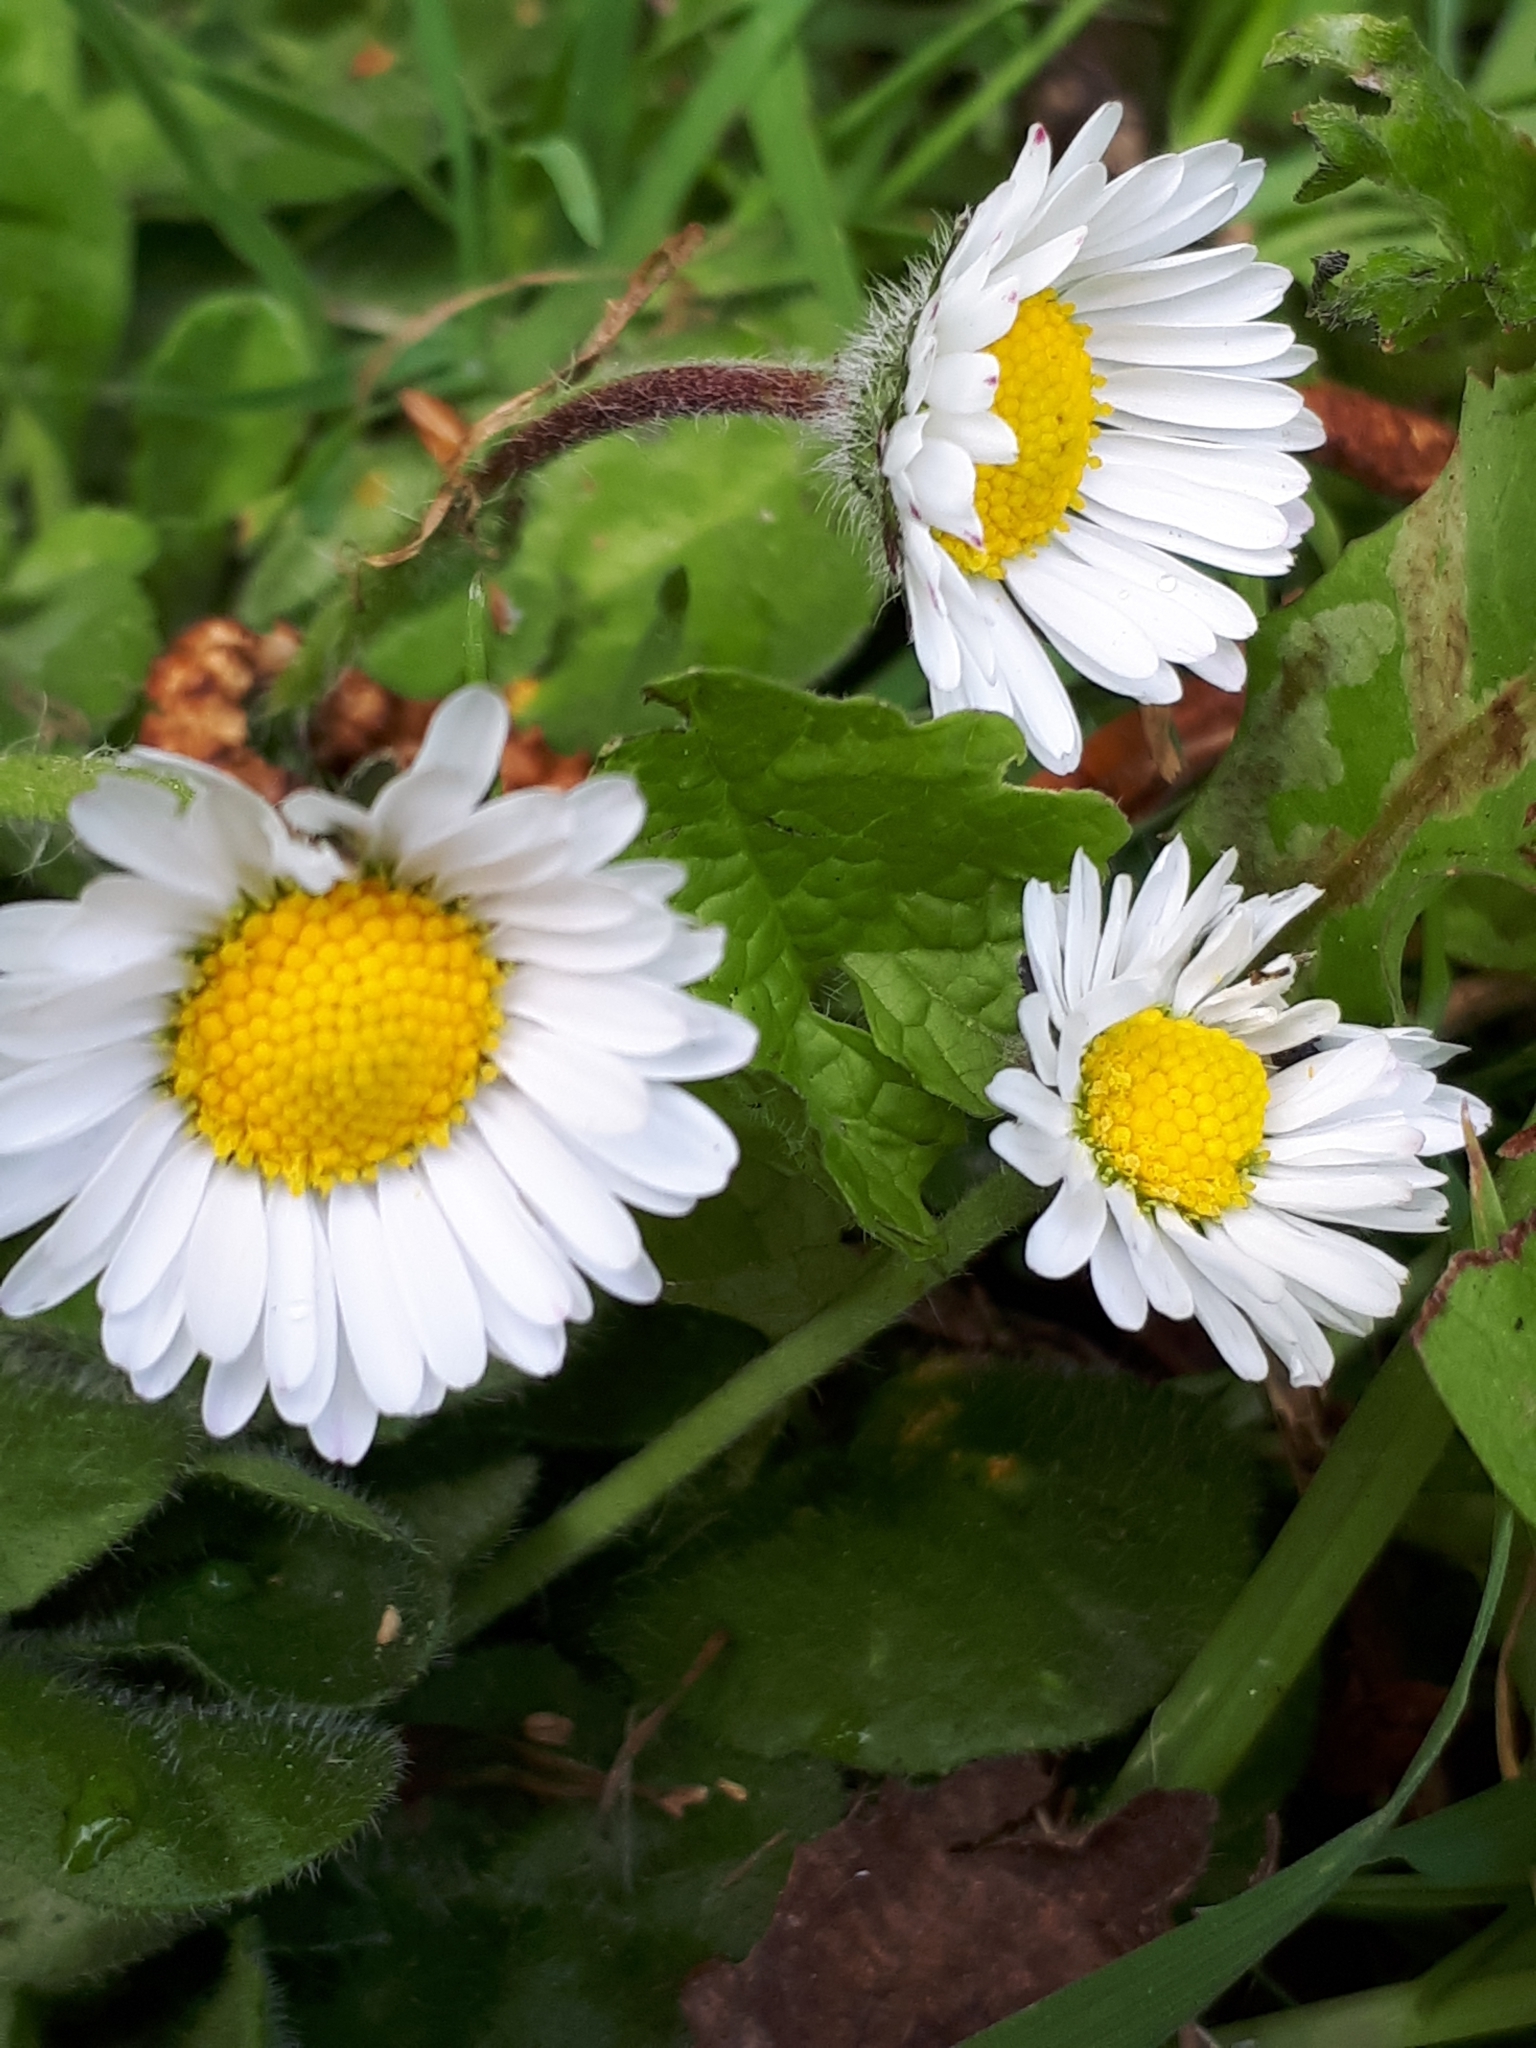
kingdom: Plantae
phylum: Tracheophyta
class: Magnoliopsida
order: Asterales
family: Asteraceae
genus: Bellis
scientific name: Bellis perennis
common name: Lawndaisy
